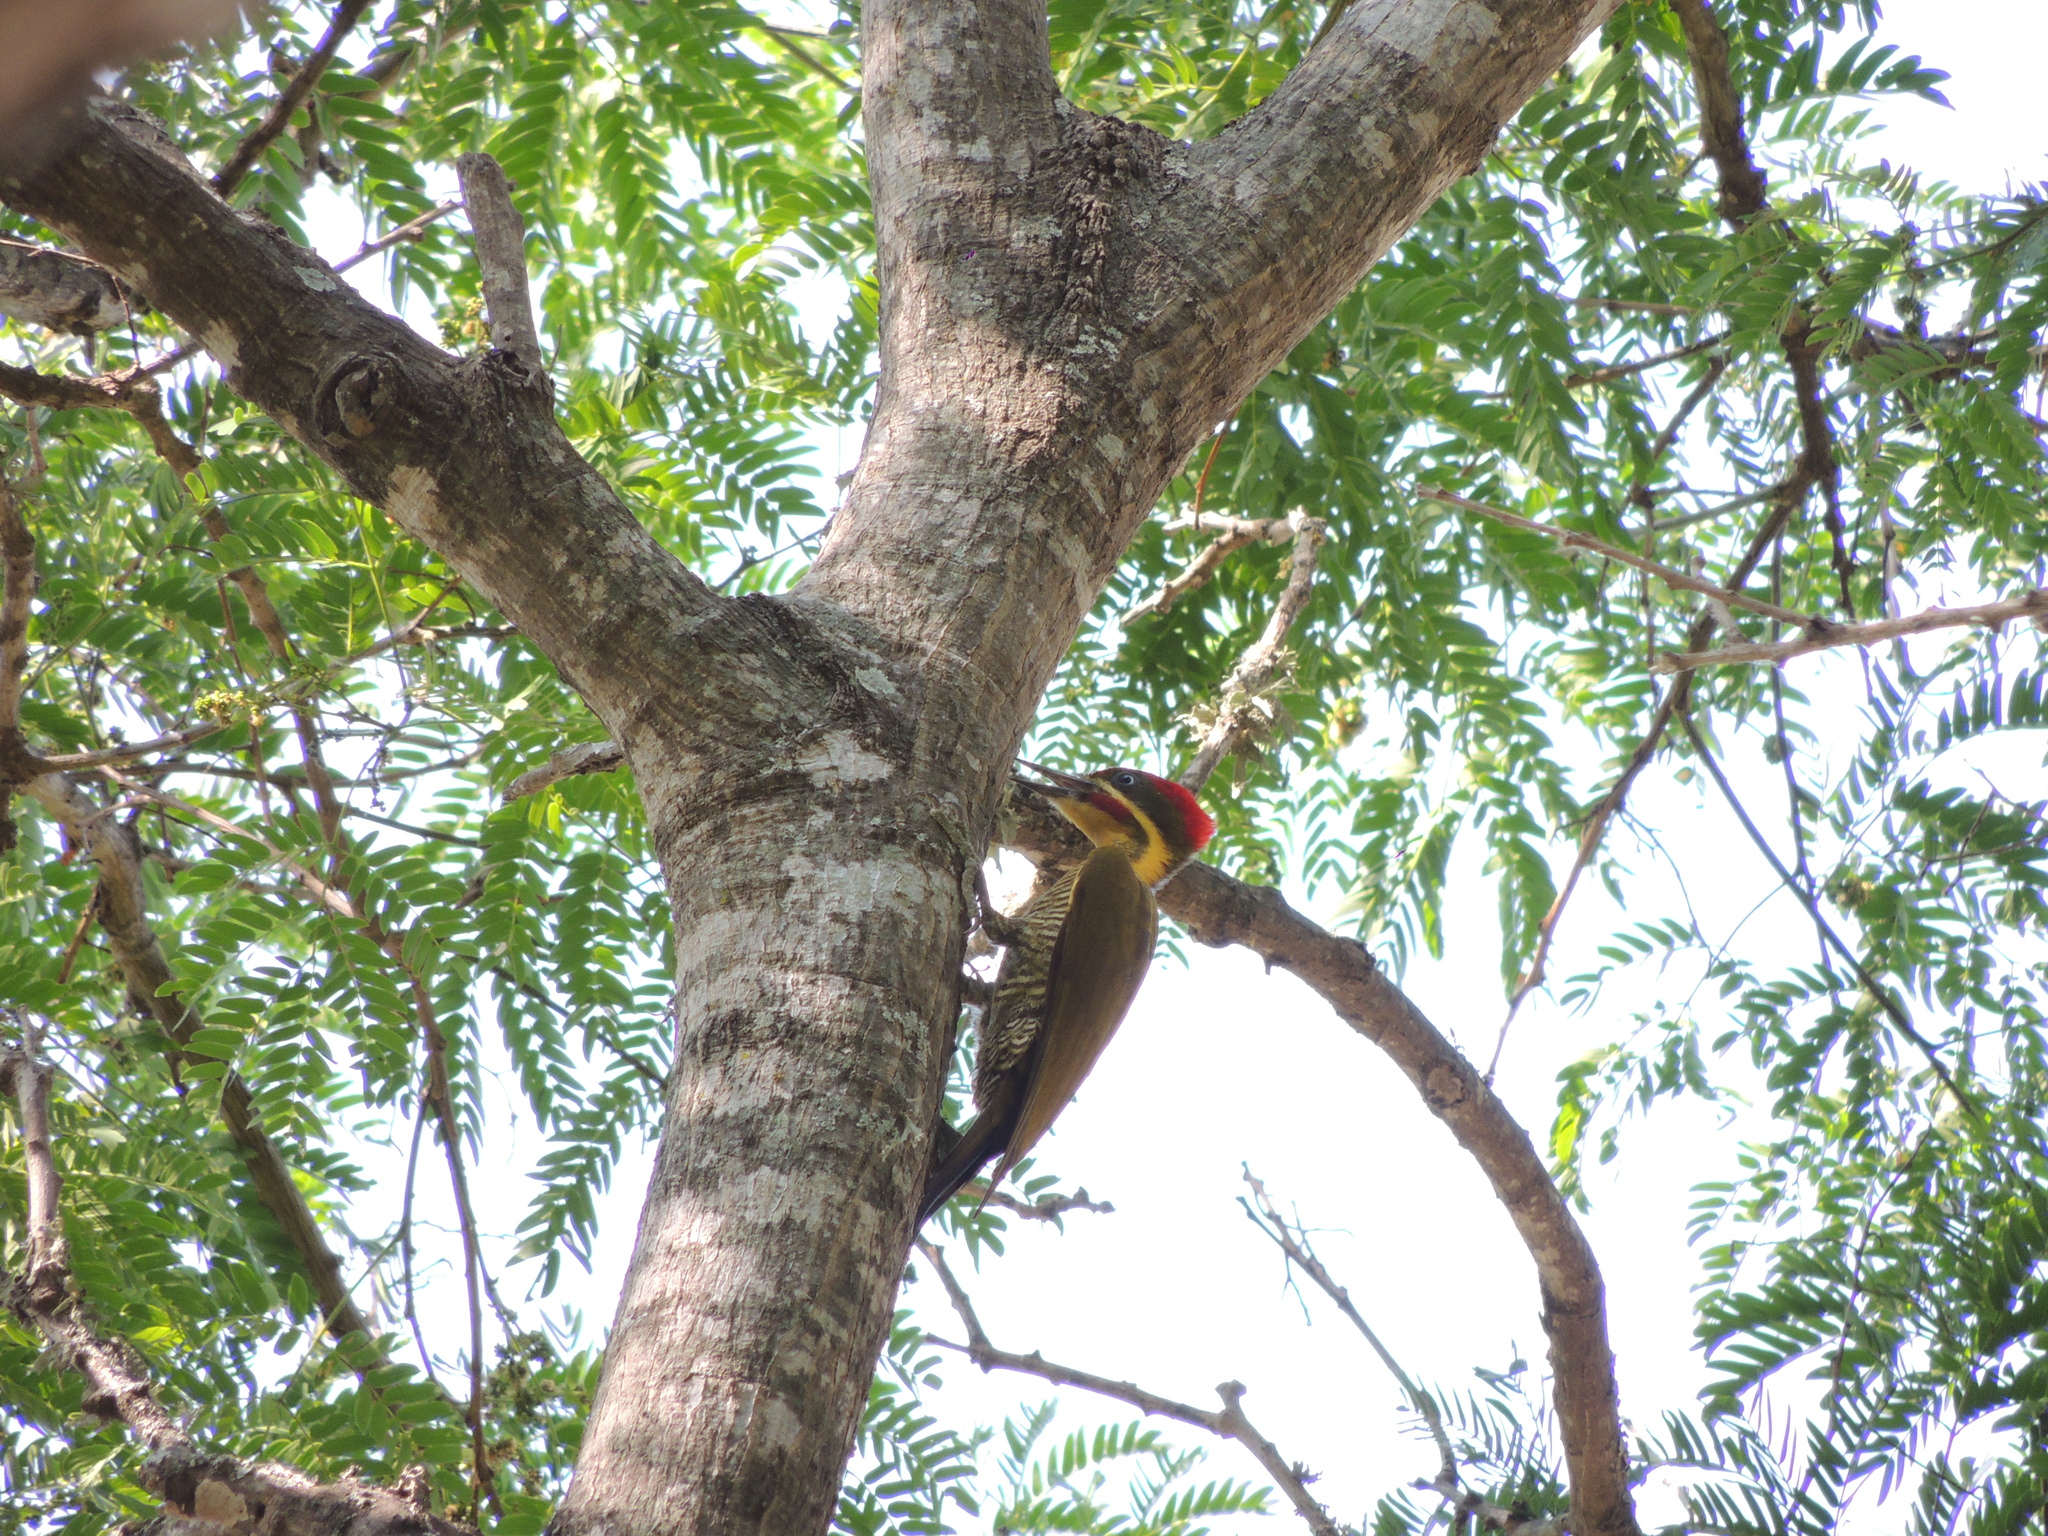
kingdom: Animalia
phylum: Chordata
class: Aves
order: Piciformes
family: Picidae
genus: Piculus
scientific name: Piculus chrysochloros
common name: Golden-green woodpecker
